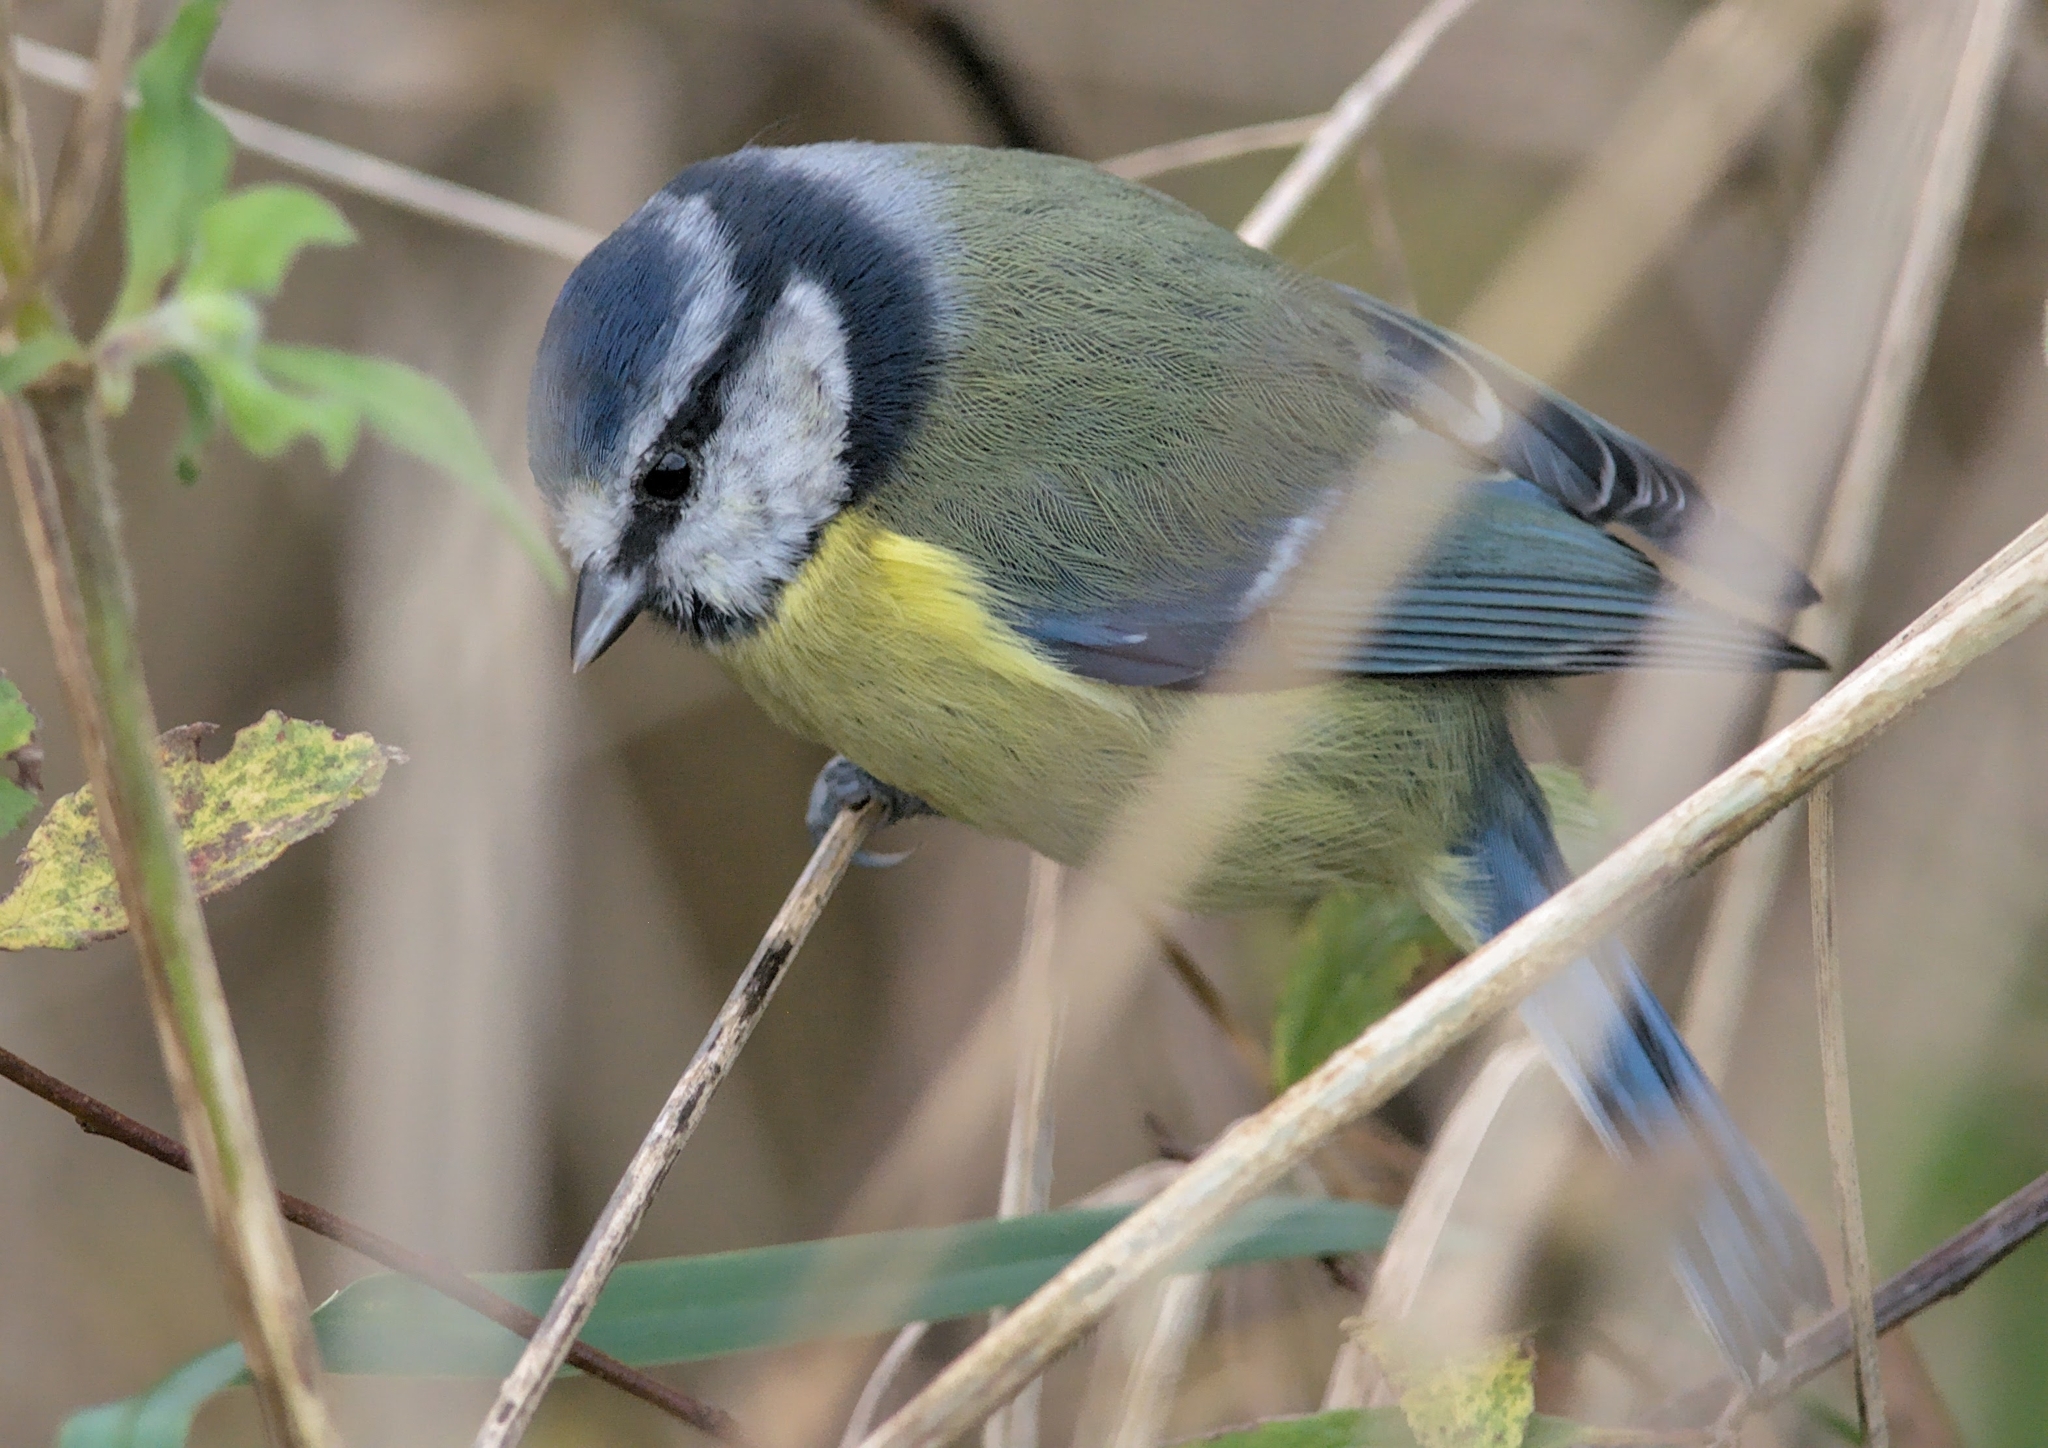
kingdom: Animalia
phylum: Chordata
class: Aves
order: Passeriformes
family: Paridae
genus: Cyanistes
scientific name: Cyanistes caeruleus
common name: Eurasian blue tit
